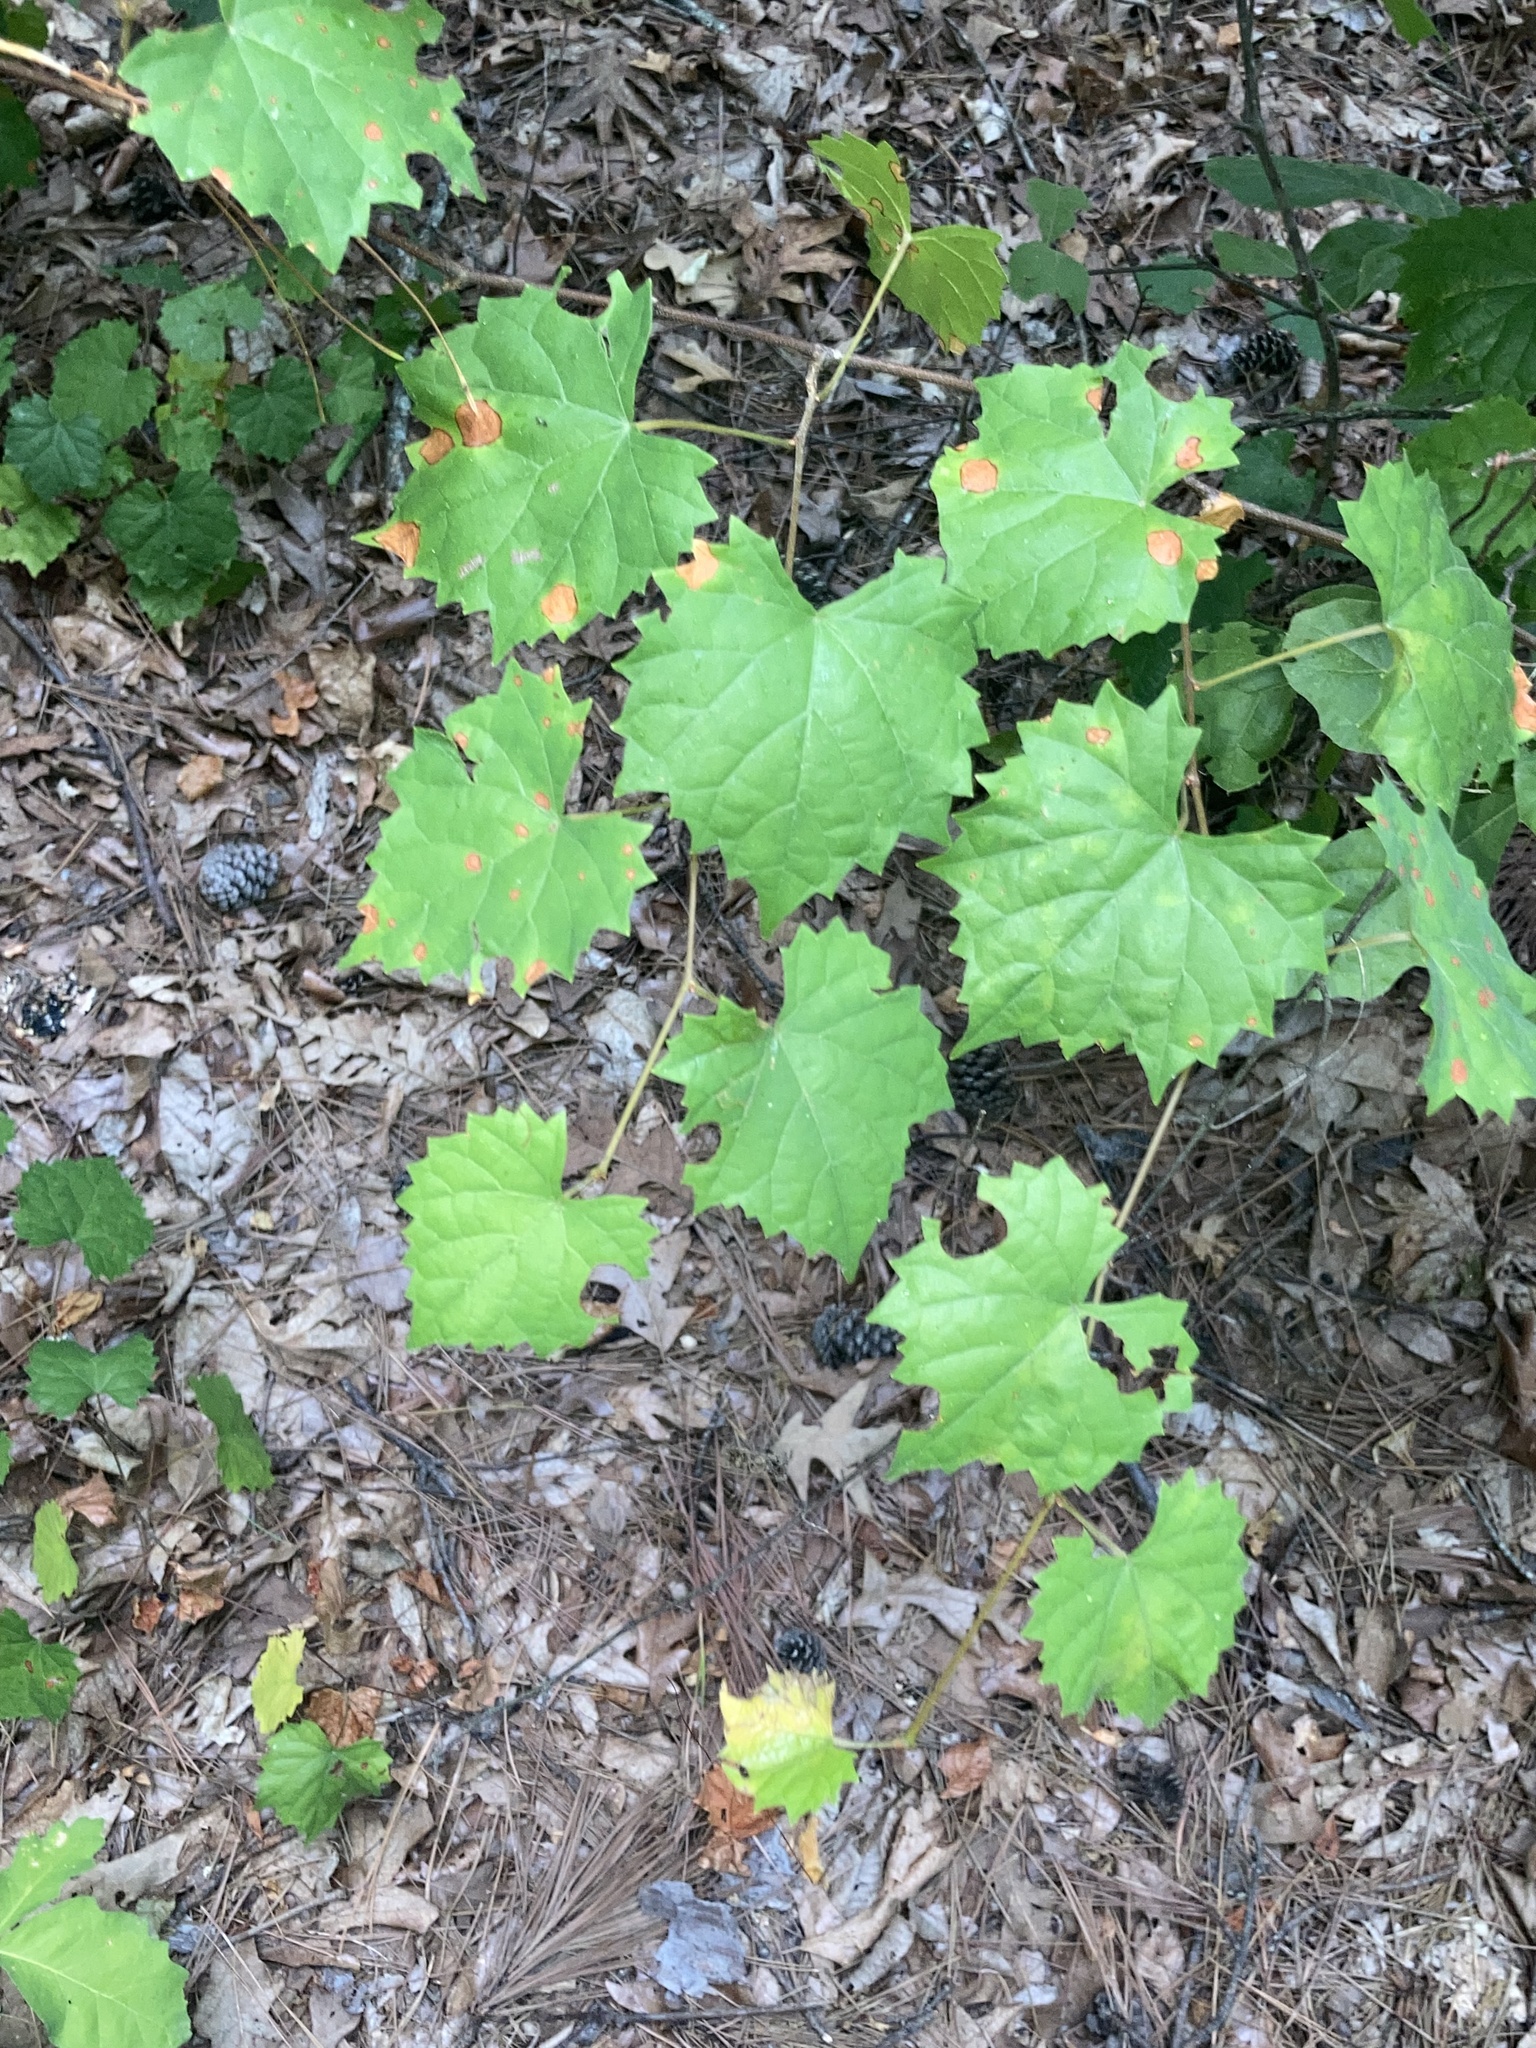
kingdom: Plantae
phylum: Tracheophyta
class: Magnoliopsida
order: Vitales
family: Vitaceae
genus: Vitis
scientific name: Vitis rotundifolia
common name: Muscadine grape
